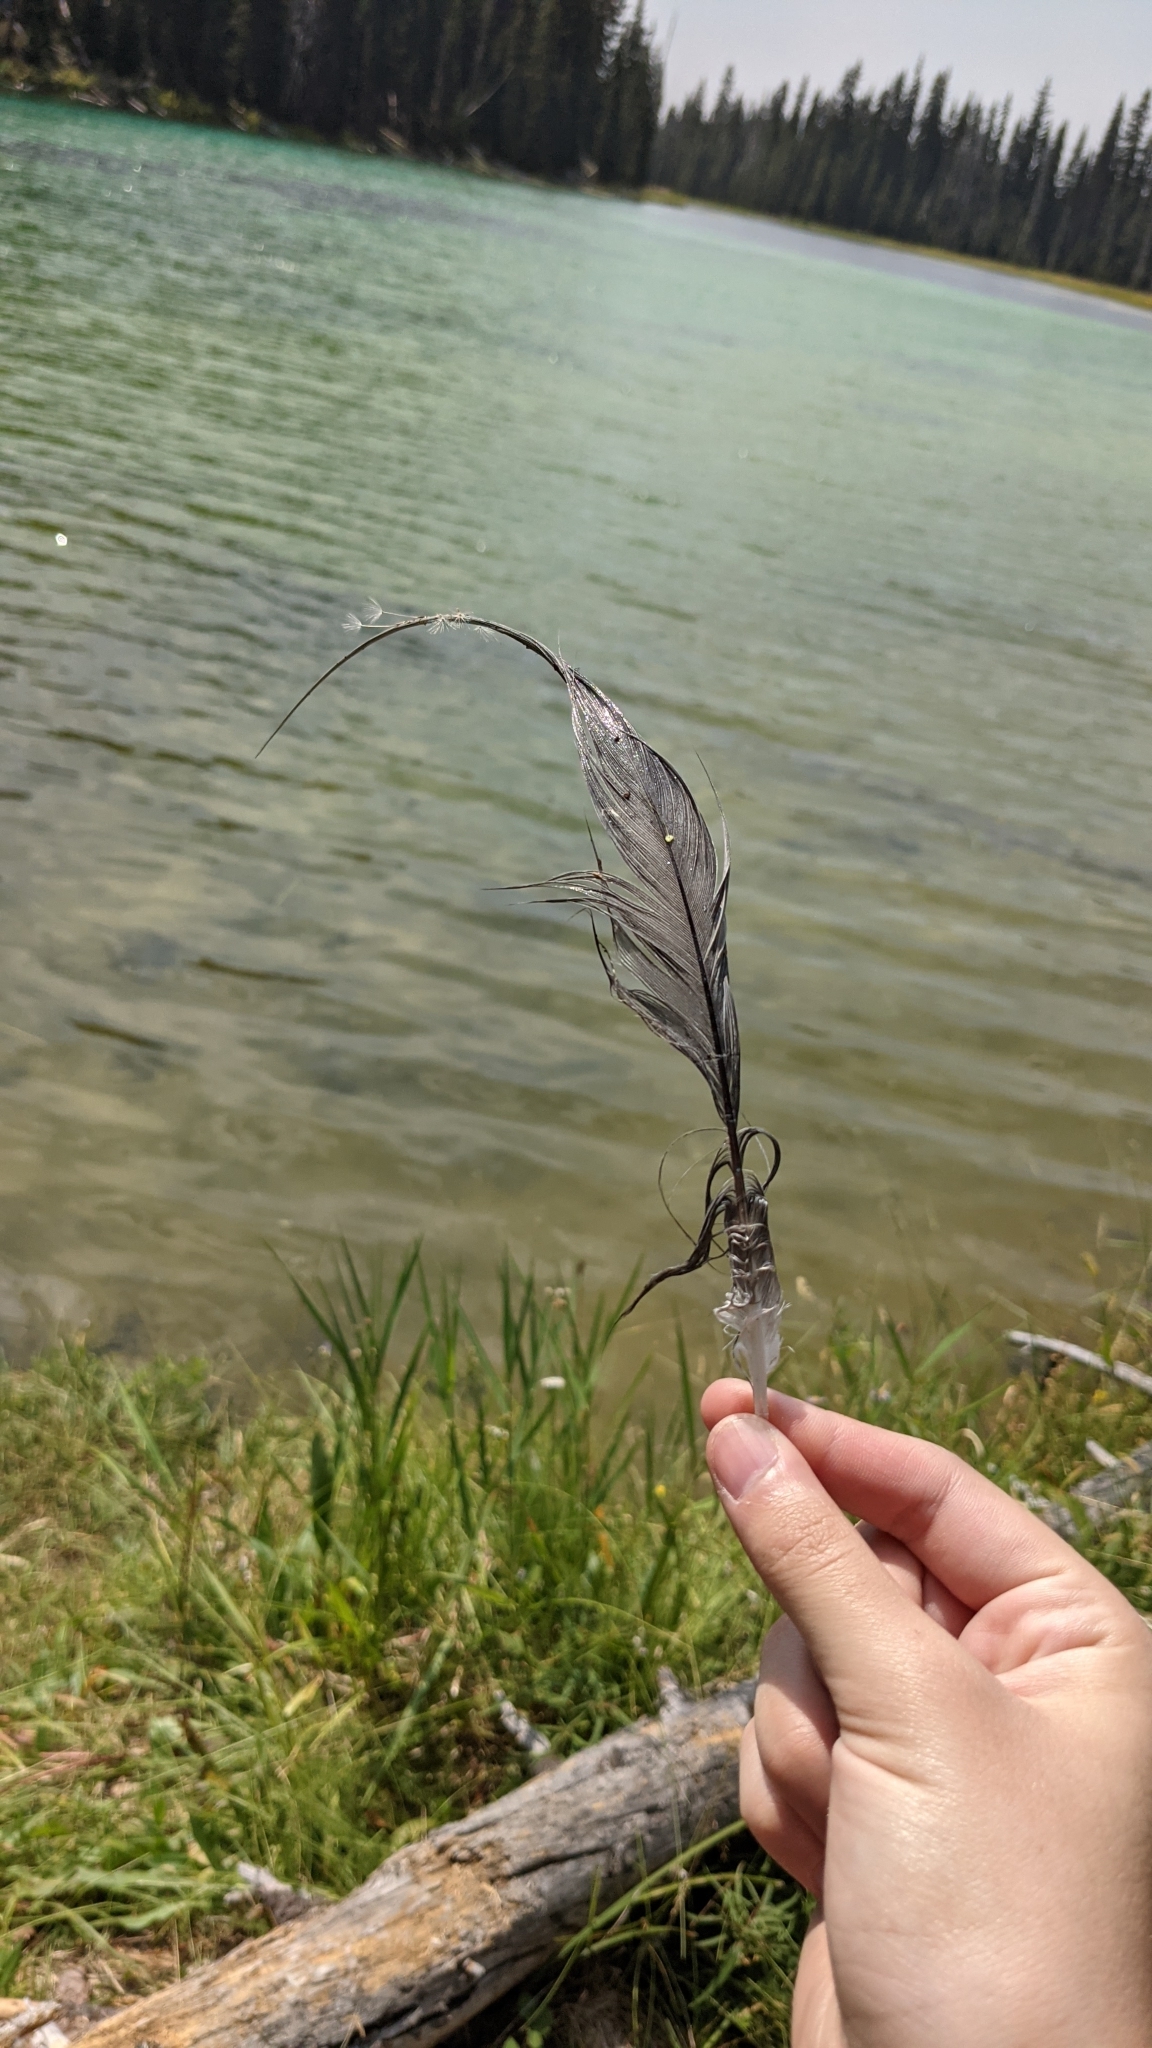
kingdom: Animalia
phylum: Chordata
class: Aves
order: Pelecaniformes
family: Ardeidae
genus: Ardea
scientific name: Ardea herodias
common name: Great blue heron
